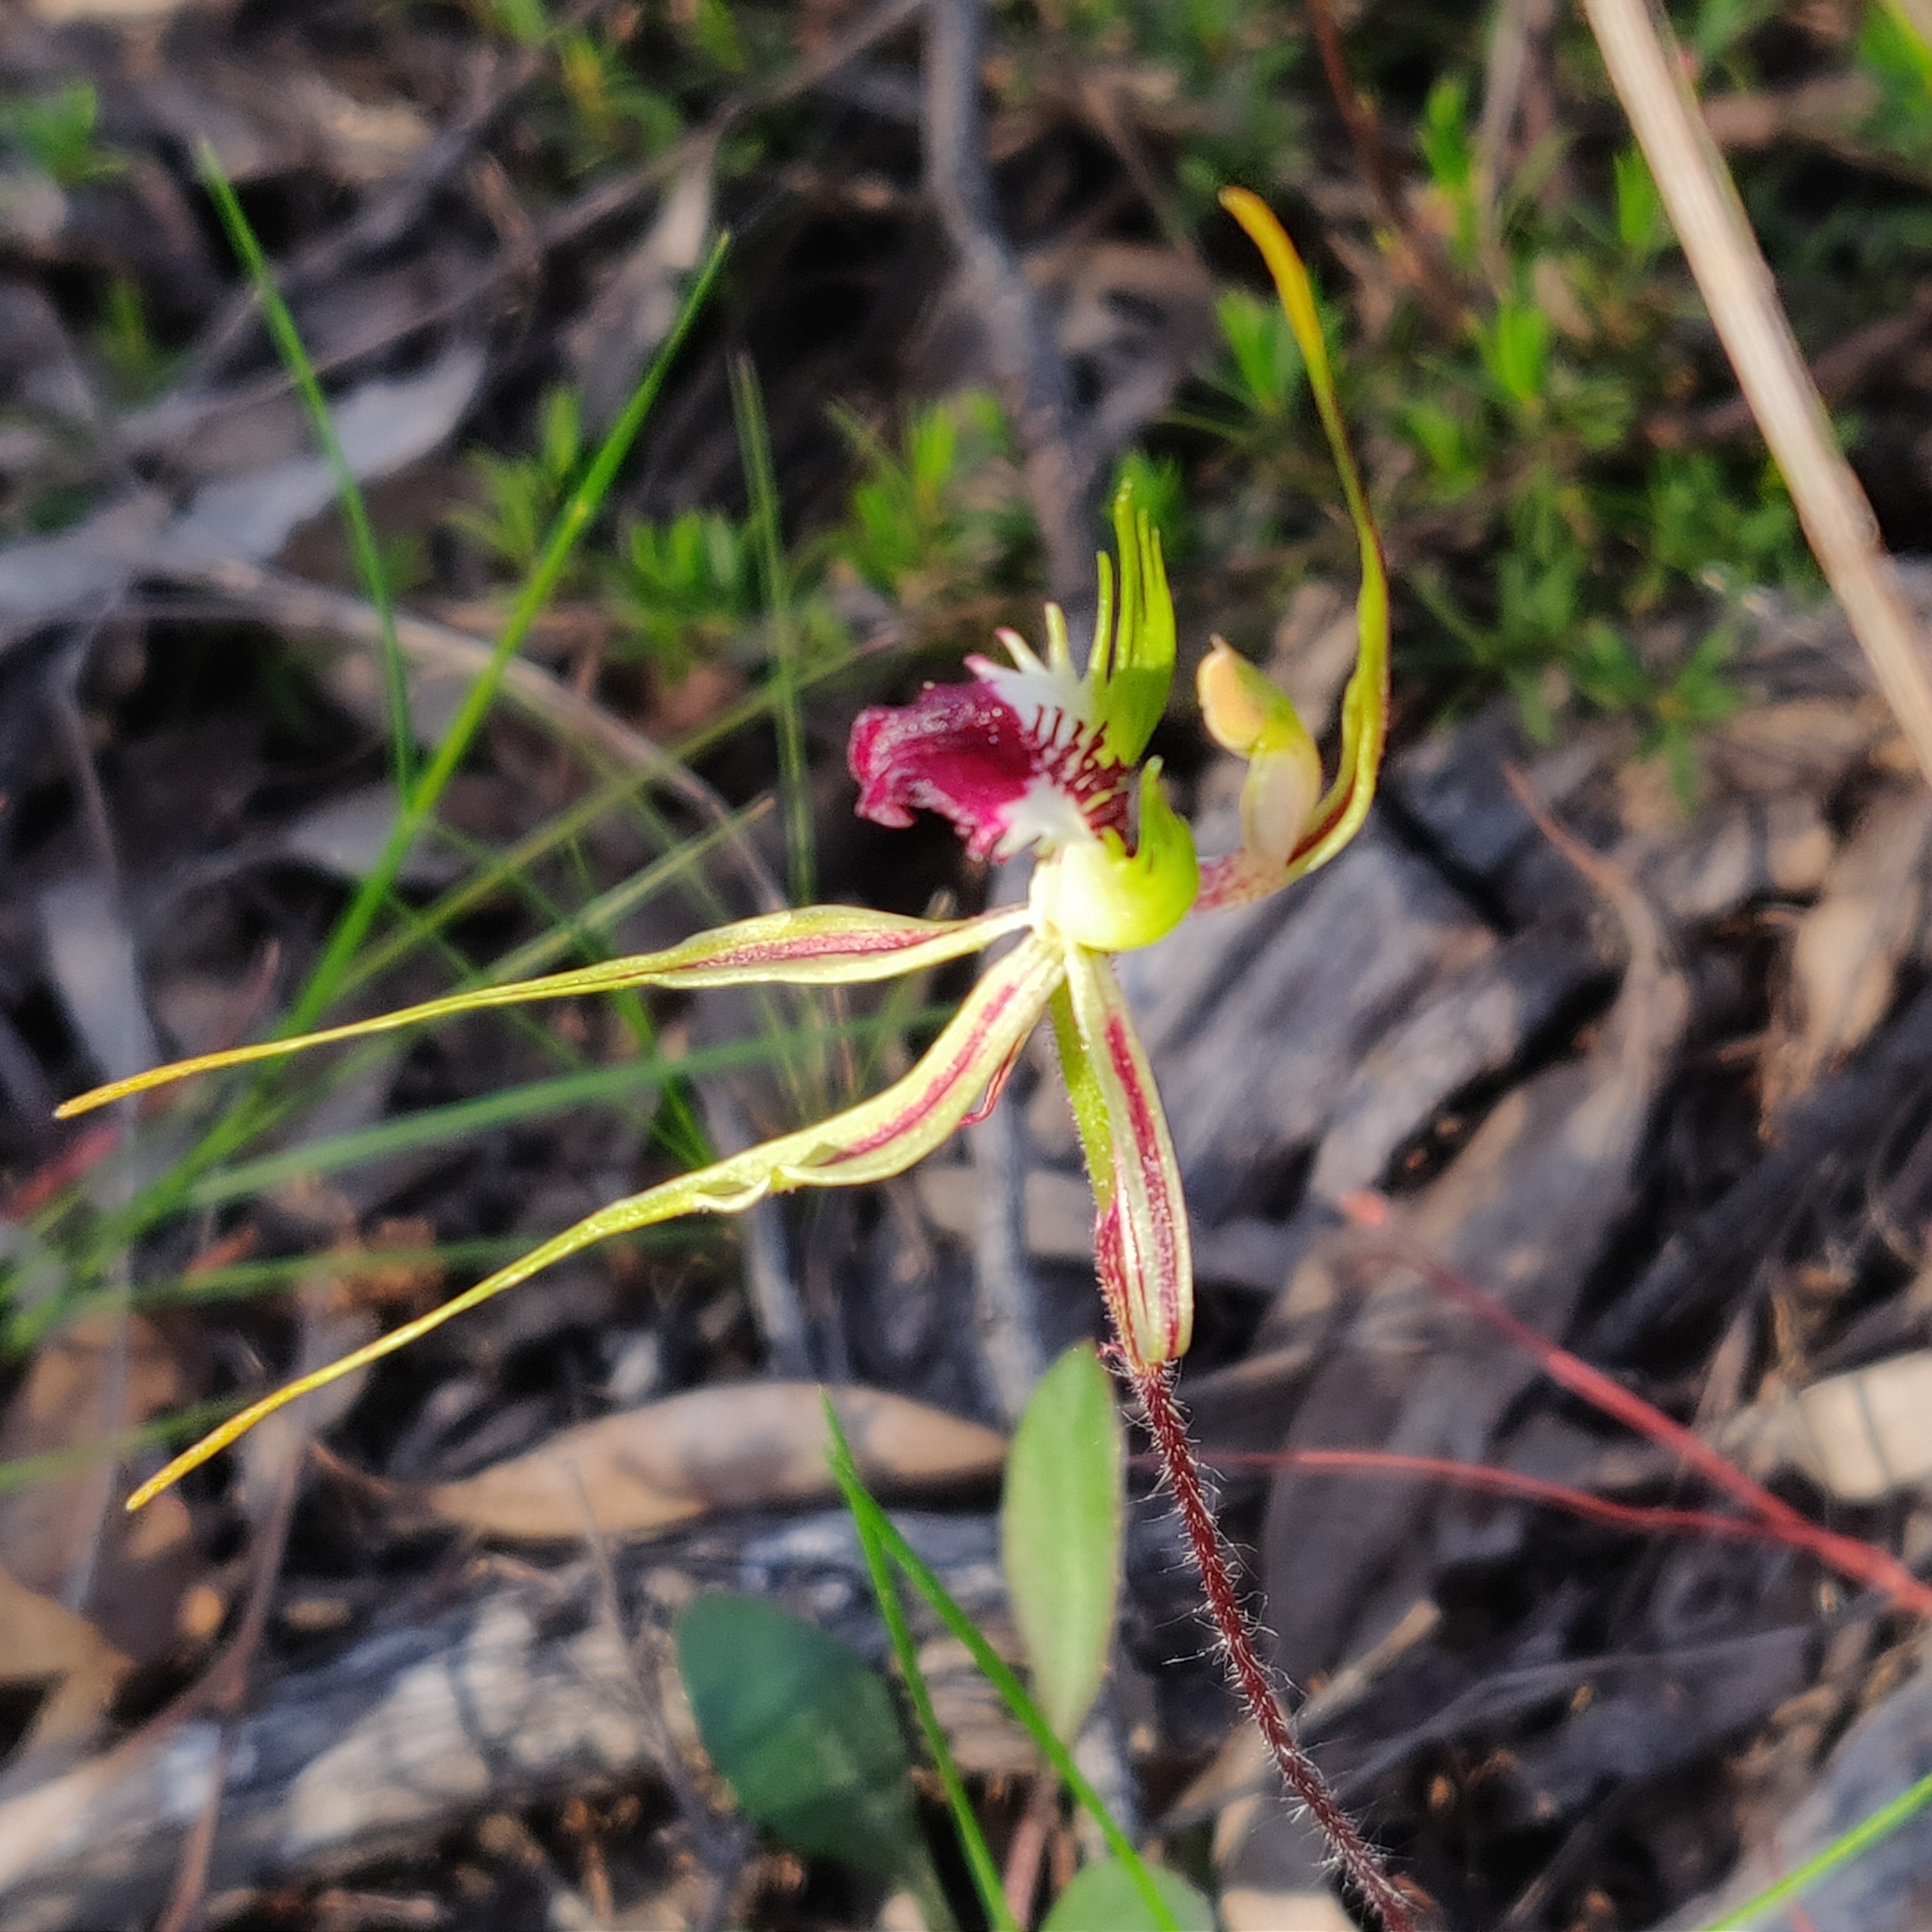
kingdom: Plantae
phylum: Tracheophyta
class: Liliopsida
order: Asparagales
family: Orchidaceae
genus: Caladenia
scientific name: Caladenia atrovespa
